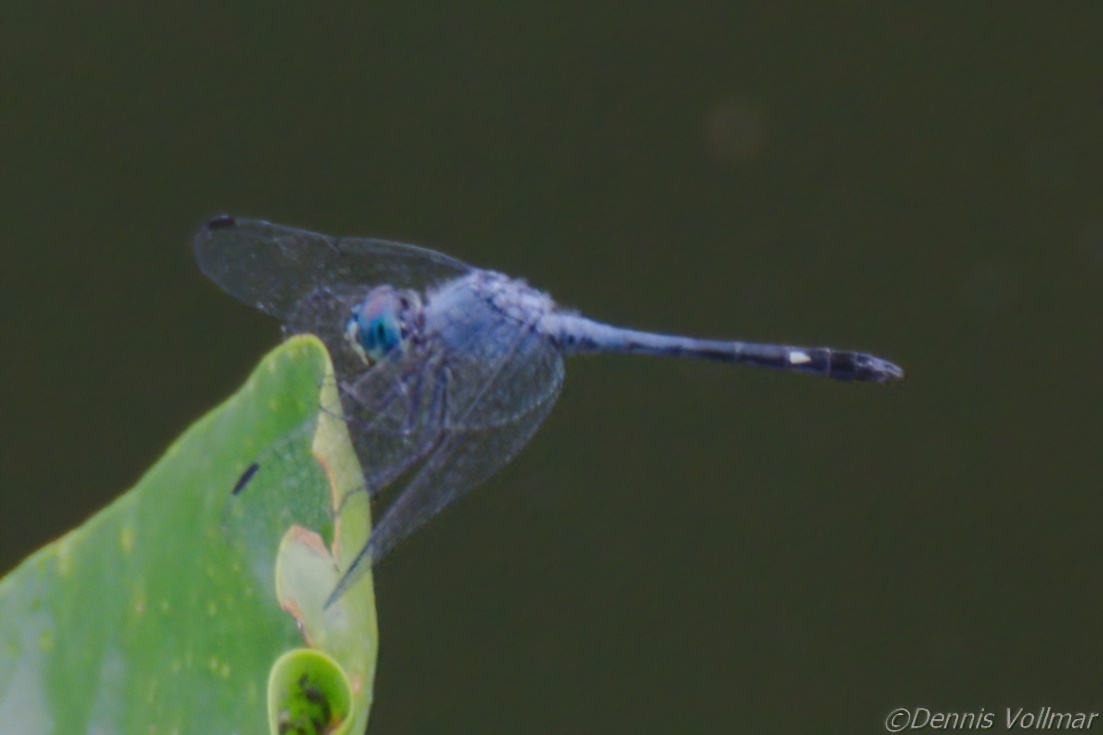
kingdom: Animalia
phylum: Arthropoda
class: Insecta
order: Odonata
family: Libellulidae
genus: Micrathyria
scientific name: Micrathyria aequalis
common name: Spot-tailed dasher
